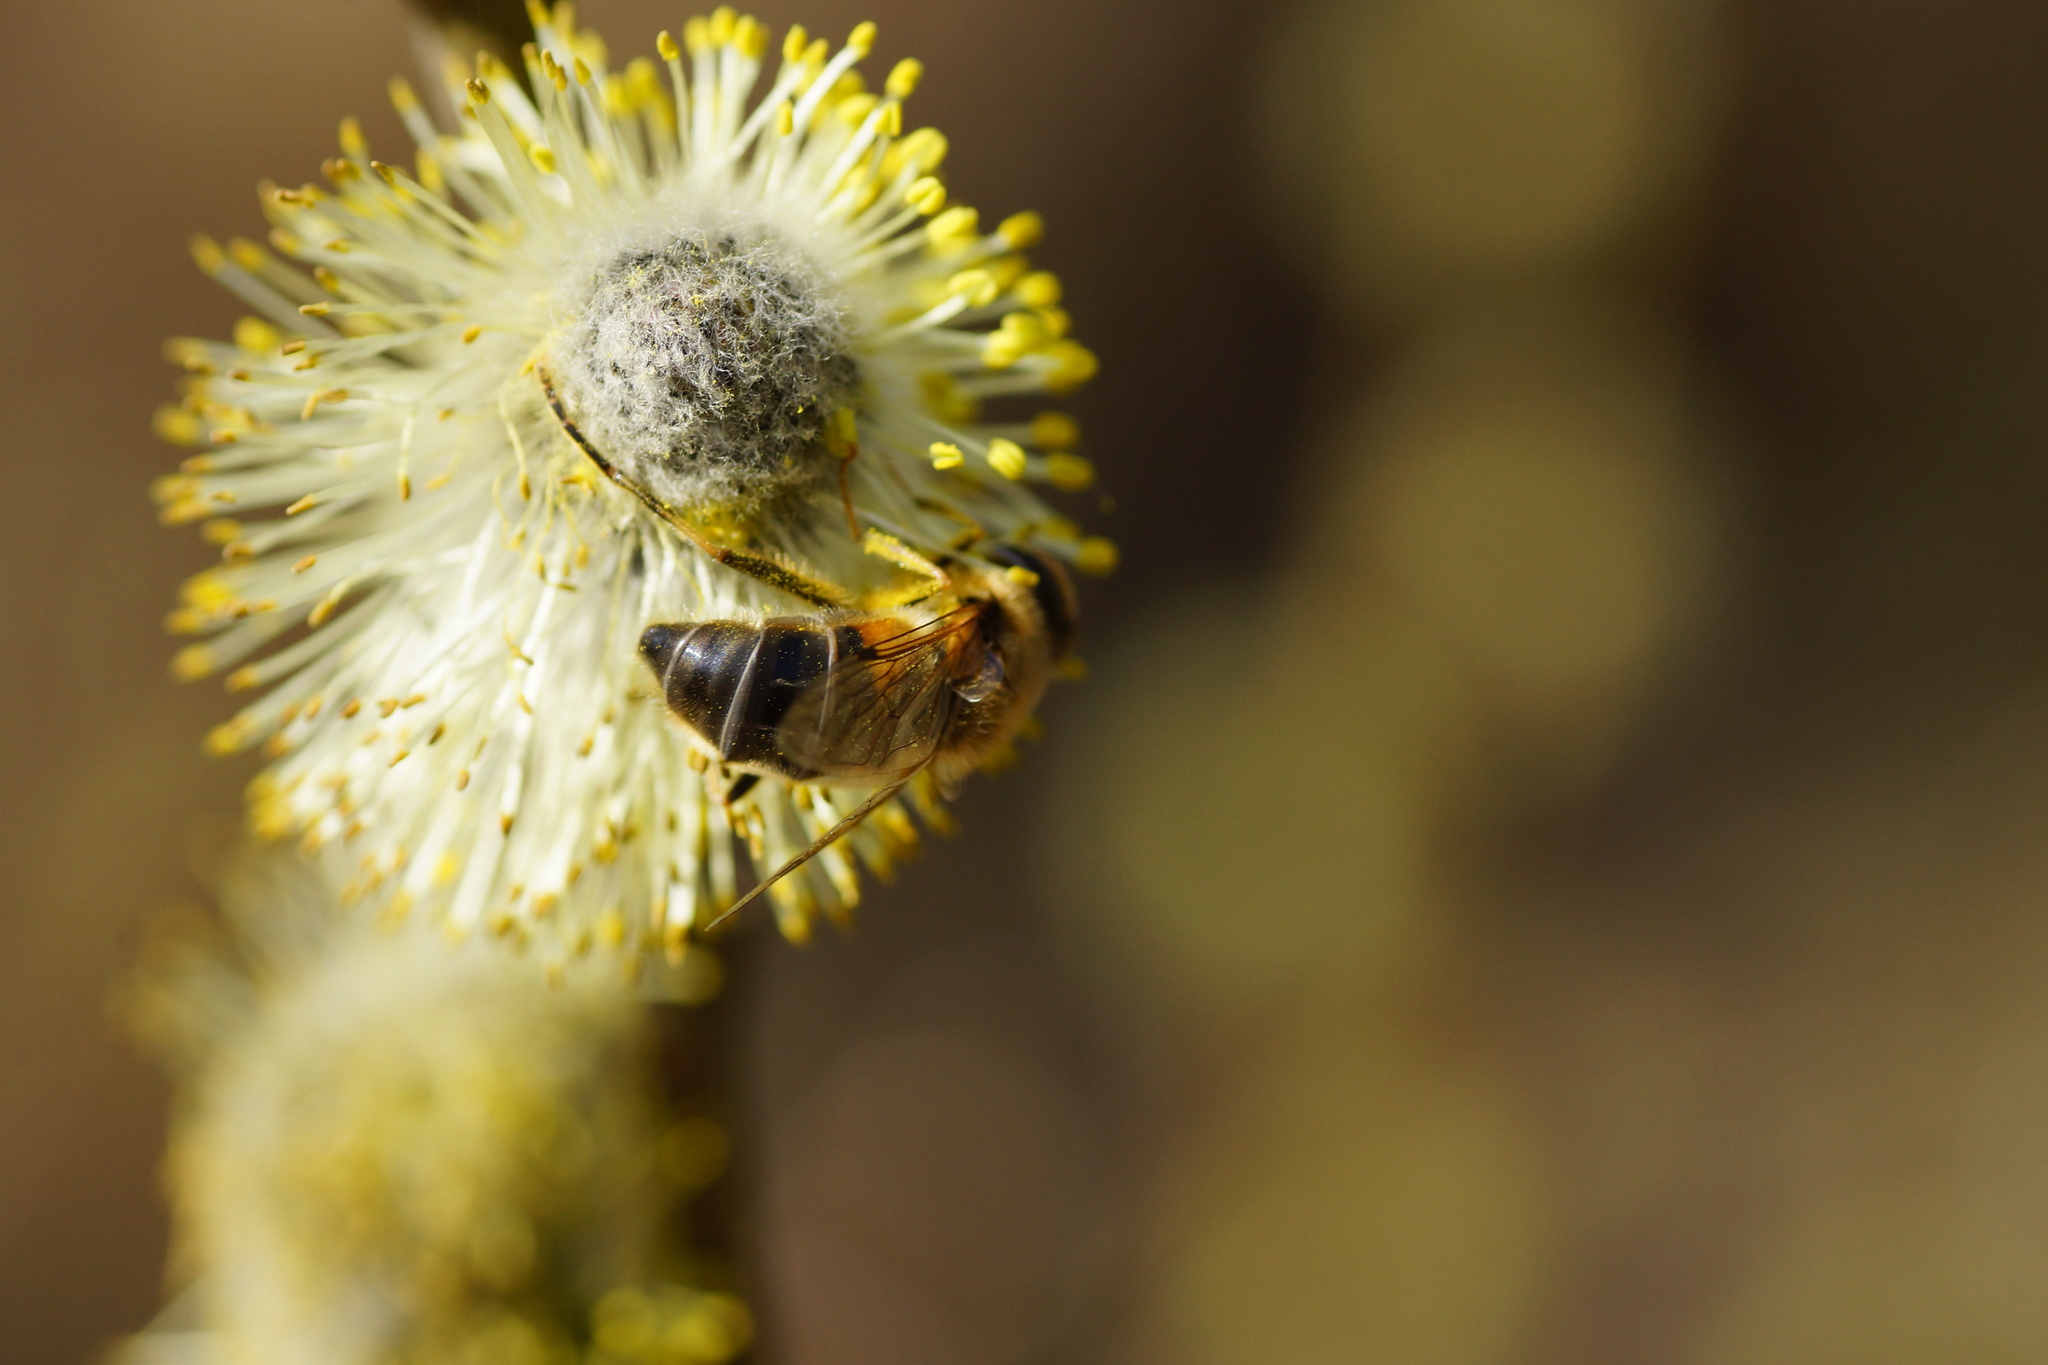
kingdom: Animalia
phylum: Arthropoda
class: Insecta
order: Diptera
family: Syrphidae
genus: Eristalis
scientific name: Eristalis pertinax
